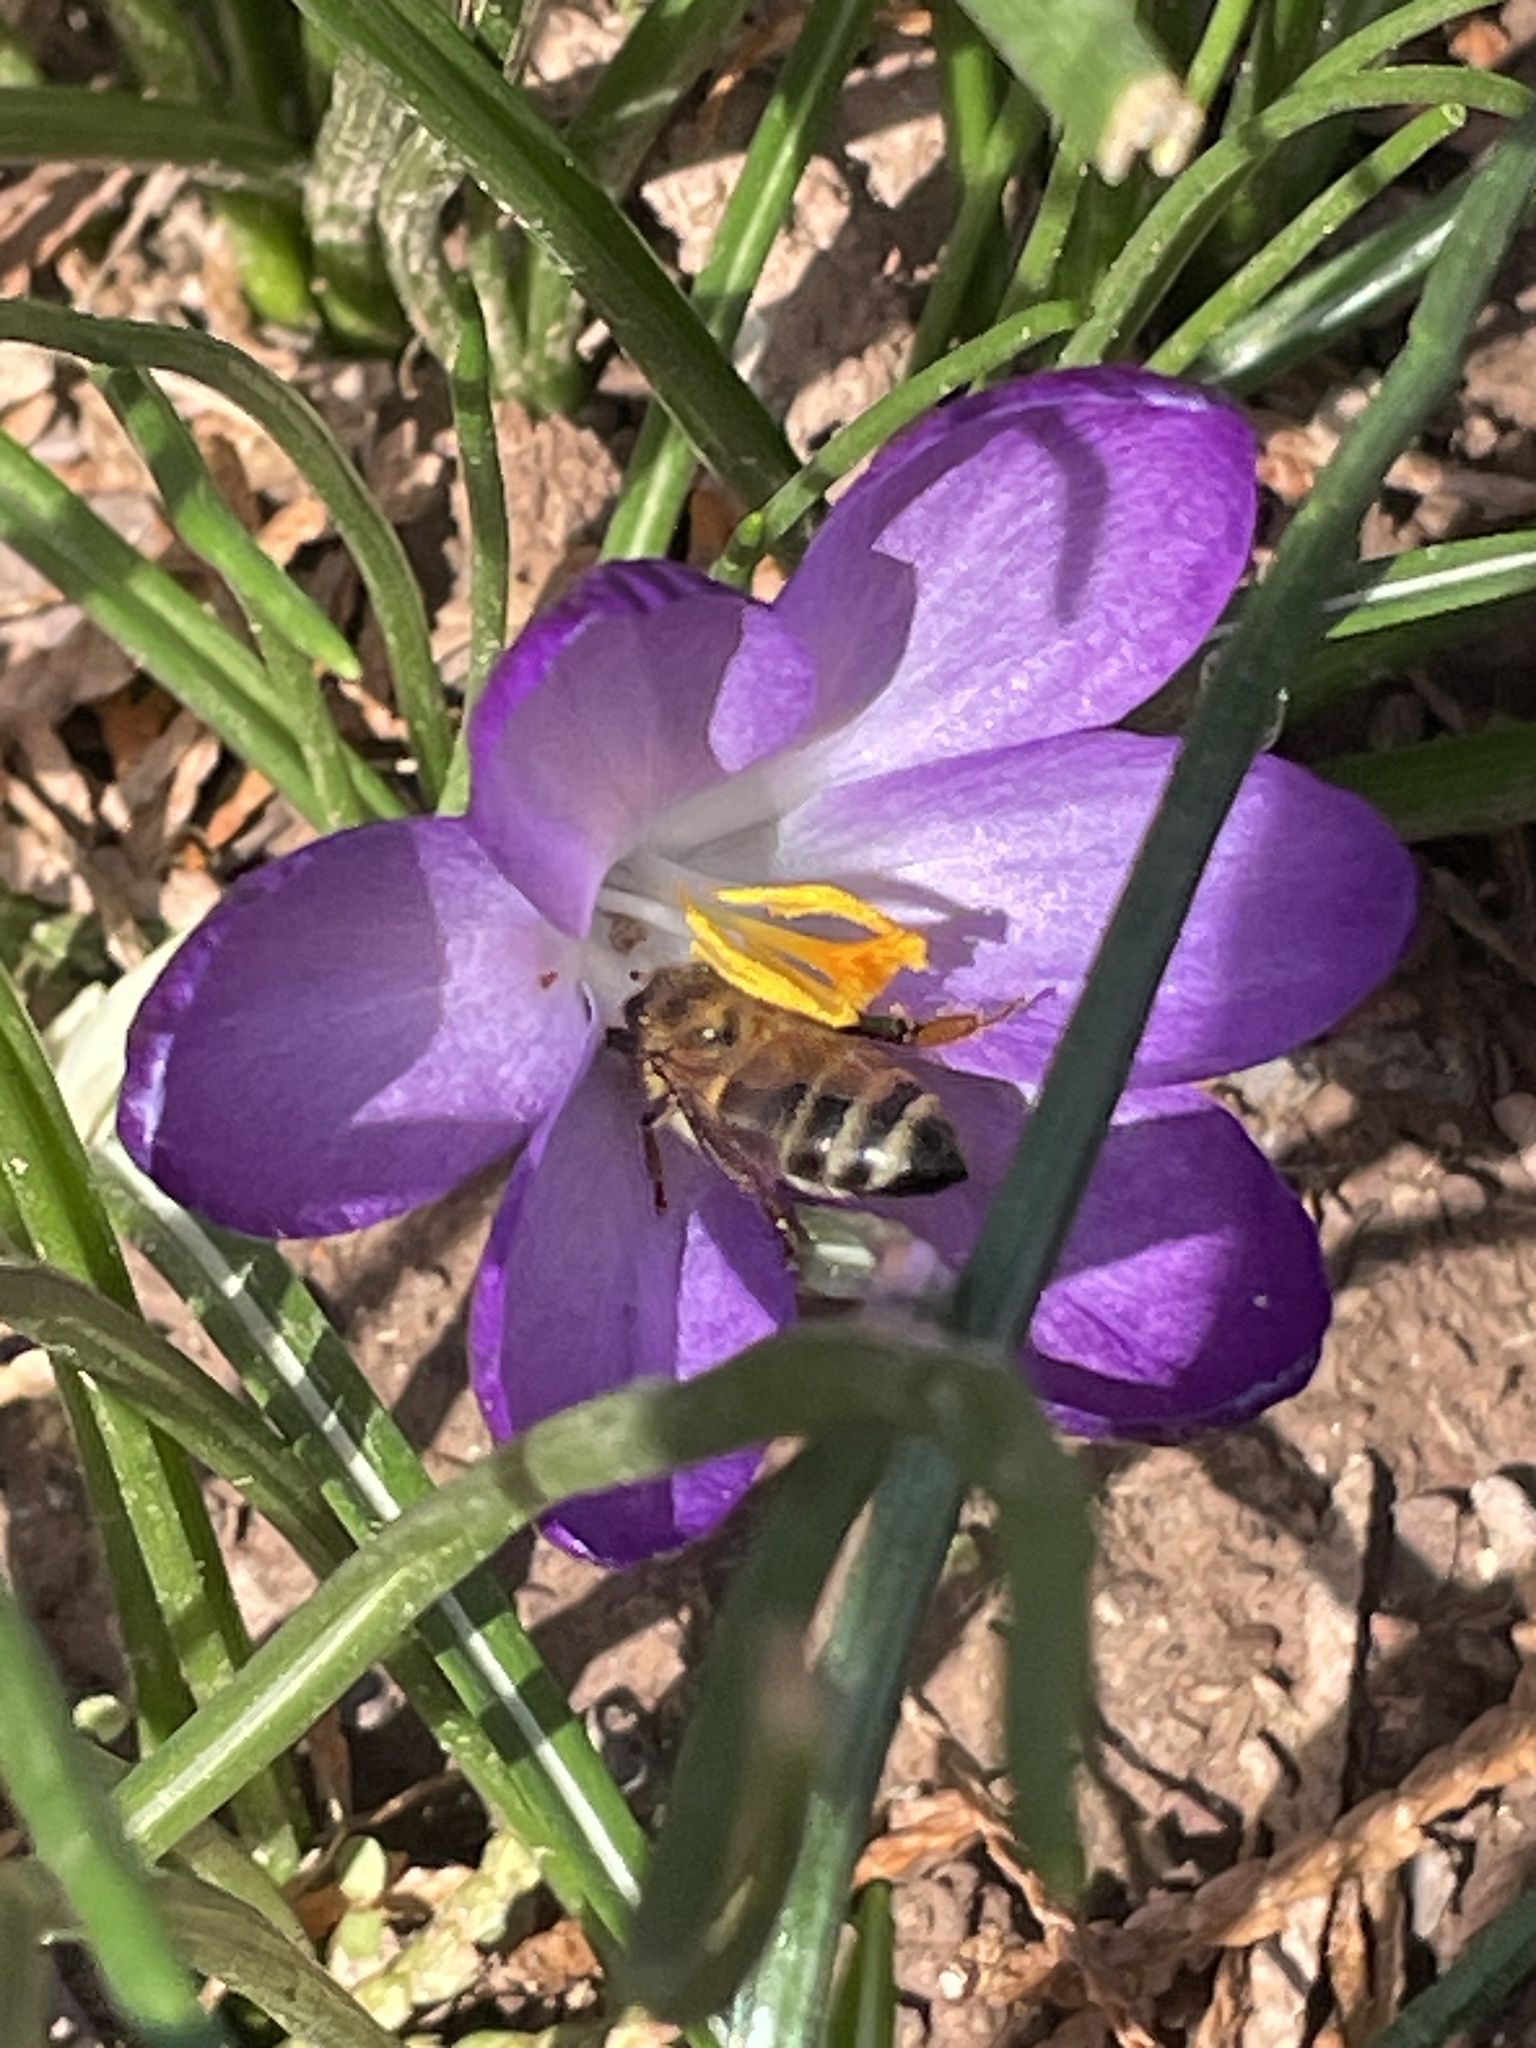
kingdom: Animalia
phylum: Arthropoda
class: Insecta
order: Hymenoptera
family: Apidae
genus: Apis
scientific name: Apis mellifera
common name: Honey bee
